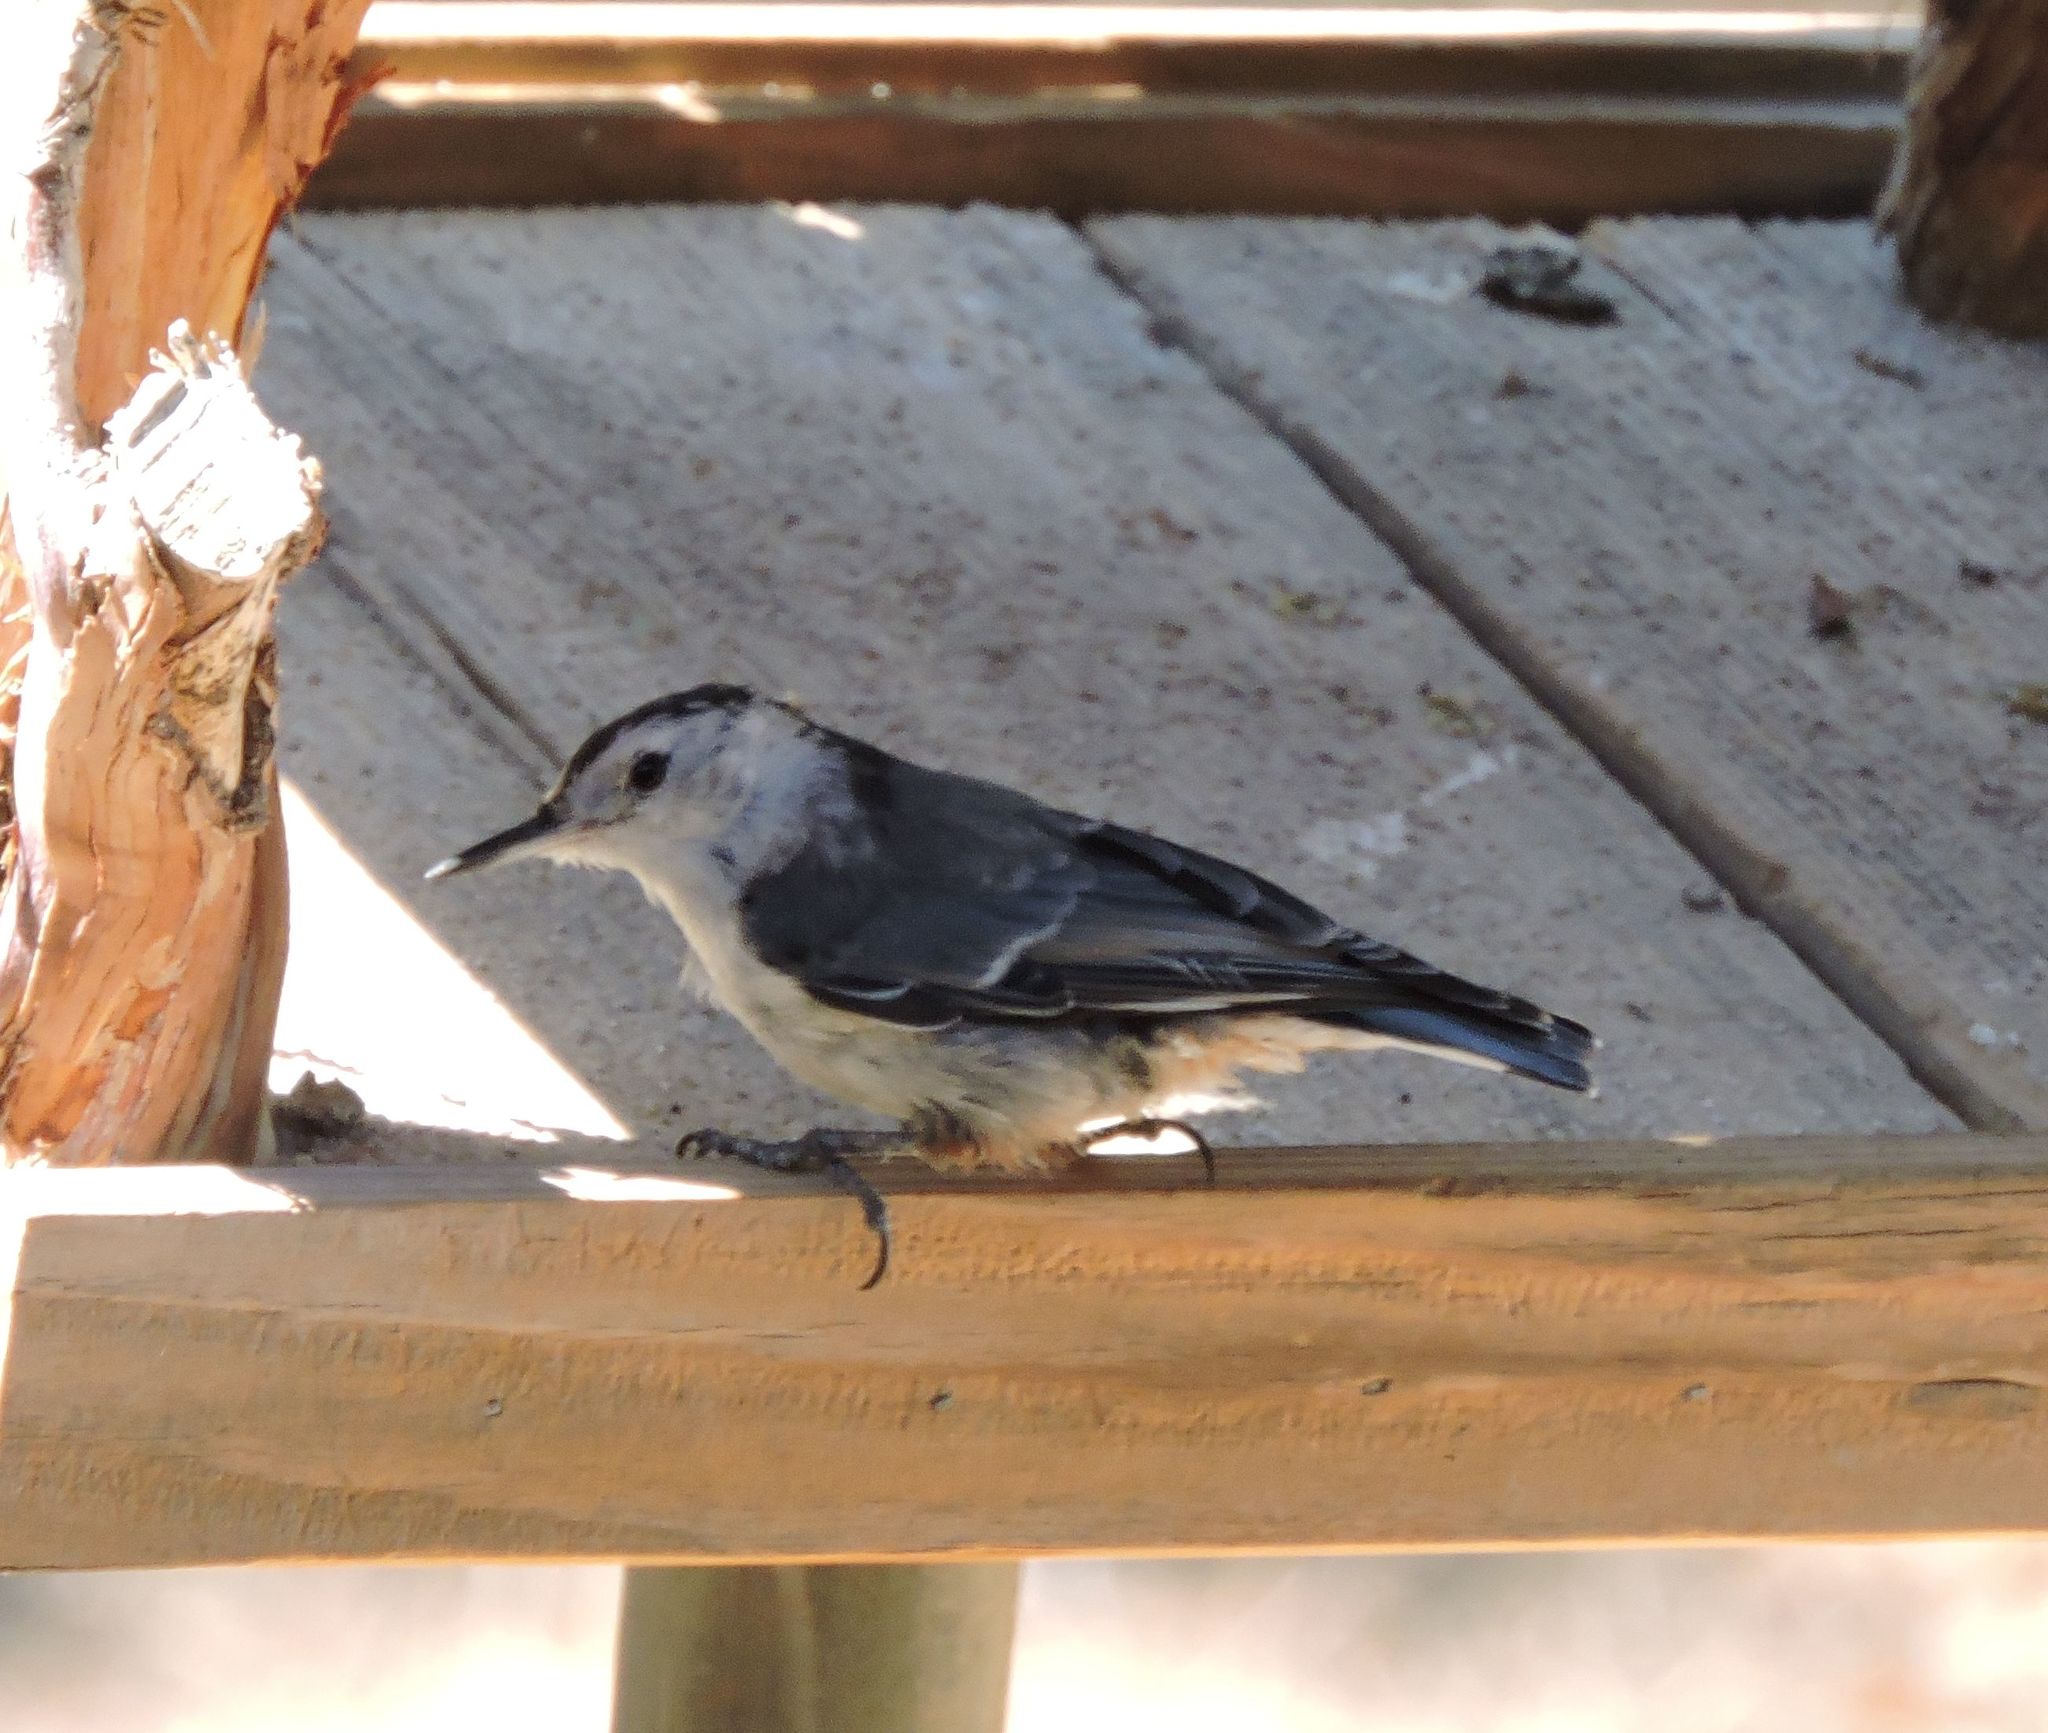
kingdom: Animalia
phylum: Chordata
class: Aves
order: Passeriformes
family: Sittidae
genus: Sitta
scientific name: Sitta carolinensis
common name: White-breasted nuthatch
